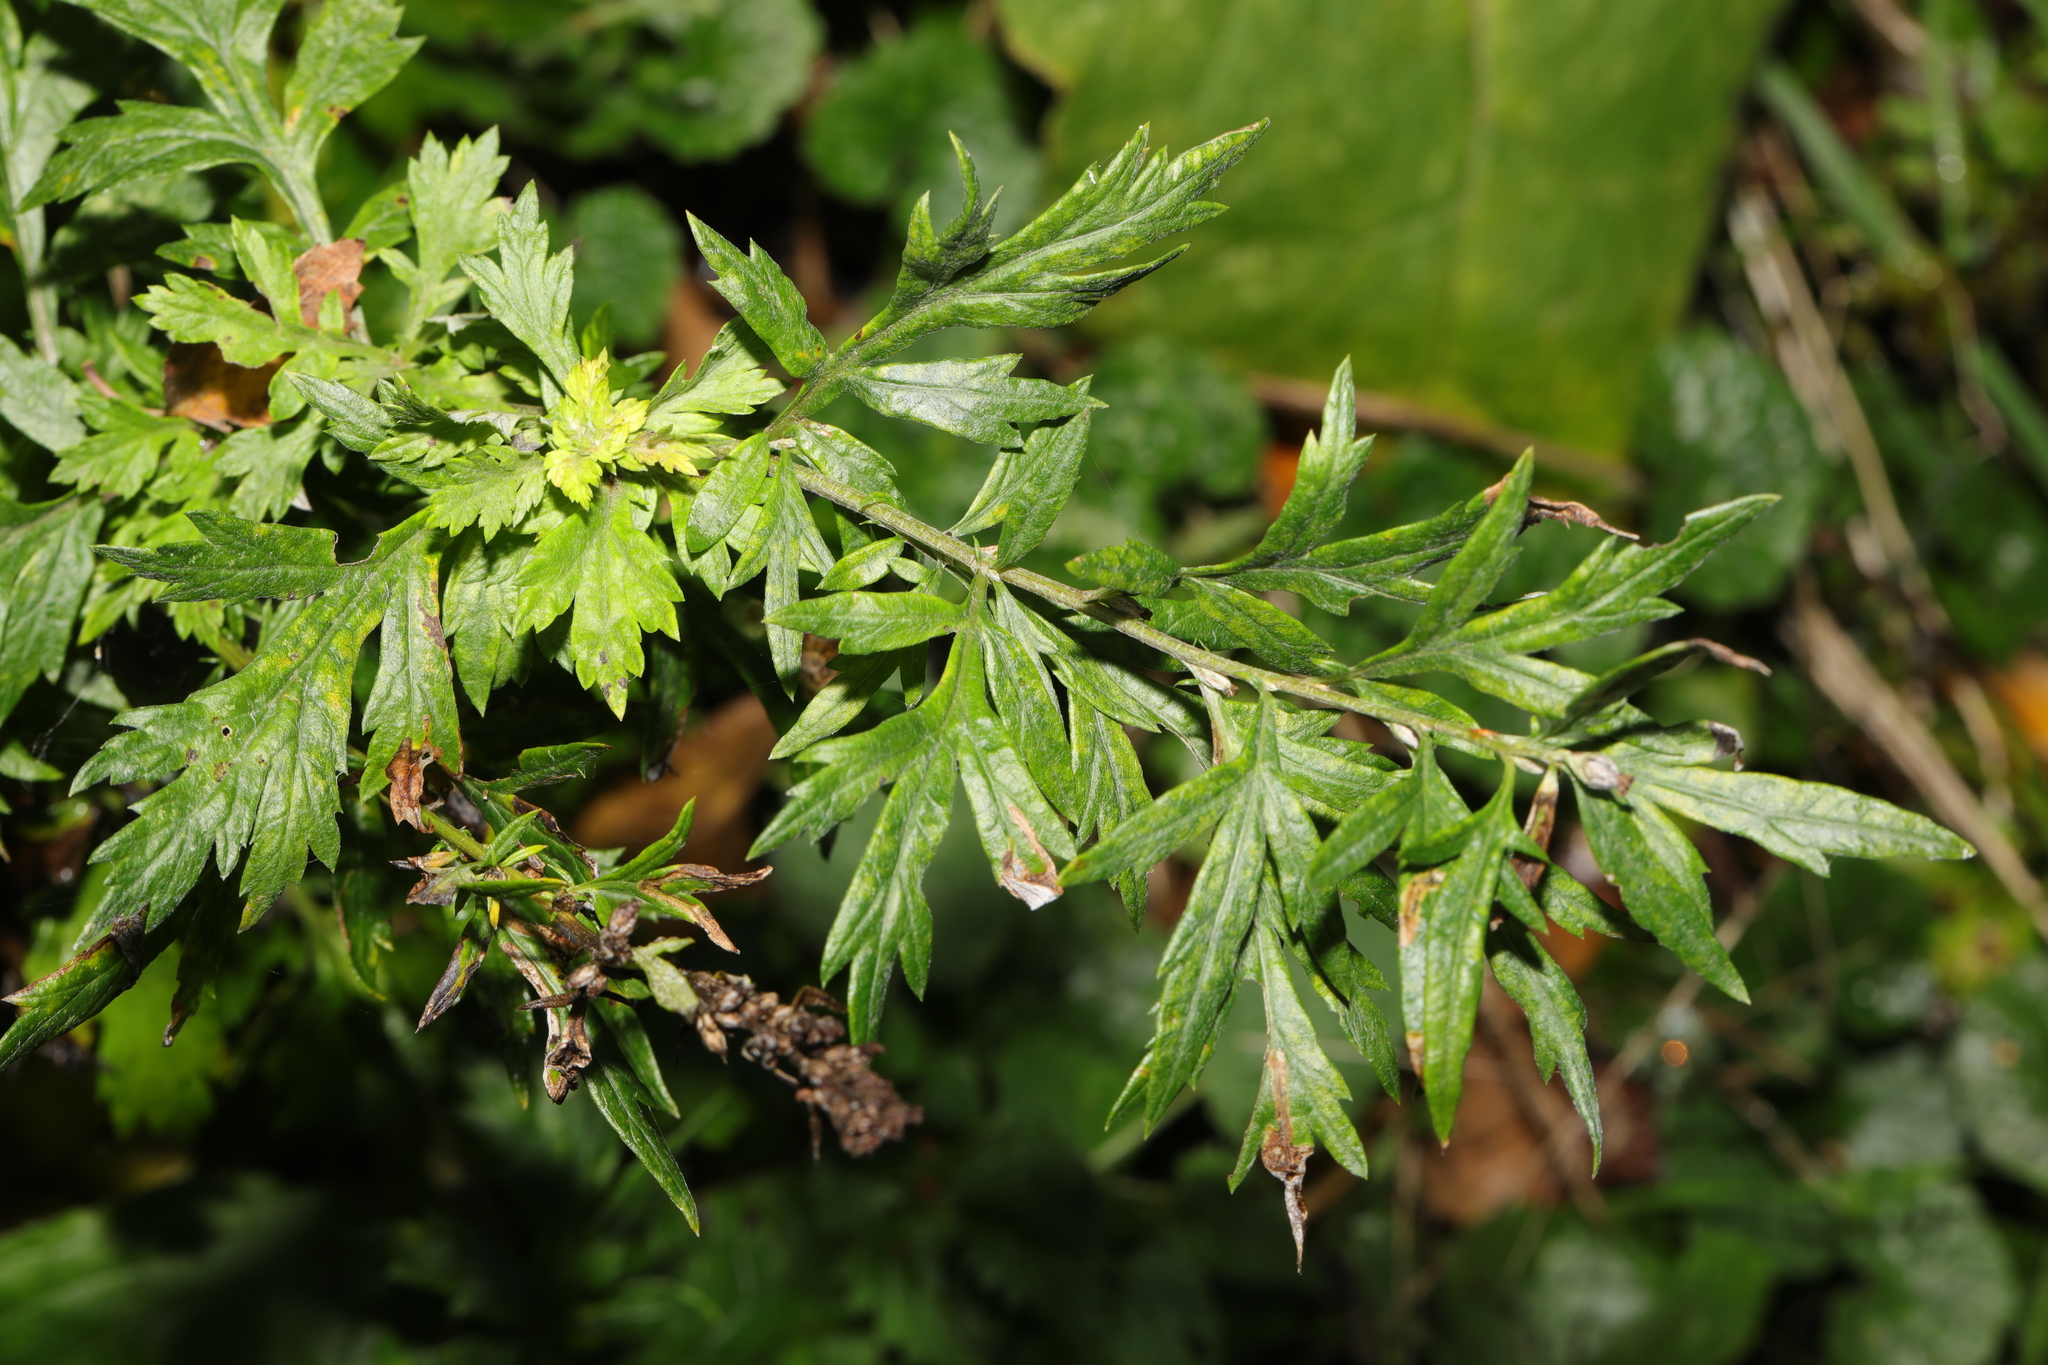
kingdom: Plantae
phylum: Tracheophyta
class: Magnoliopsida
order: Asterales
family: Asteraceae
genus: Artemisia
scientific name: Artemisia vulgaris
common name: Mugwort
